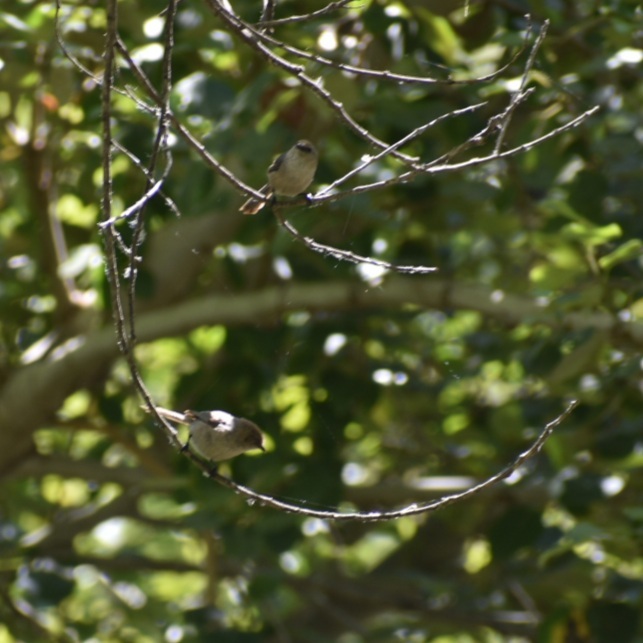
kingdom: Animalia
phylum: Chordata
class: Aves
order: Passeriformes
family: Aegithalidae
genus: Psaltriparus
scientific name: Psaltriparus minimus
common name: American bushtit
